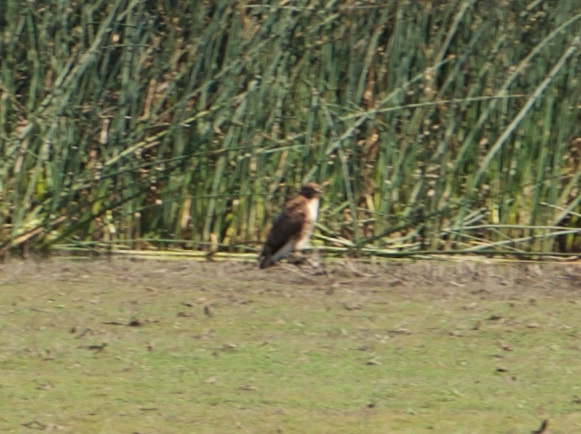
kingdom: Animalia
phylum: Chordata
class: Aves
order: Accipitriformes
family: Accipitridae
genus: Buteo
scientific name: Buteo jamaicensis
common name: Red-tailed hawk
